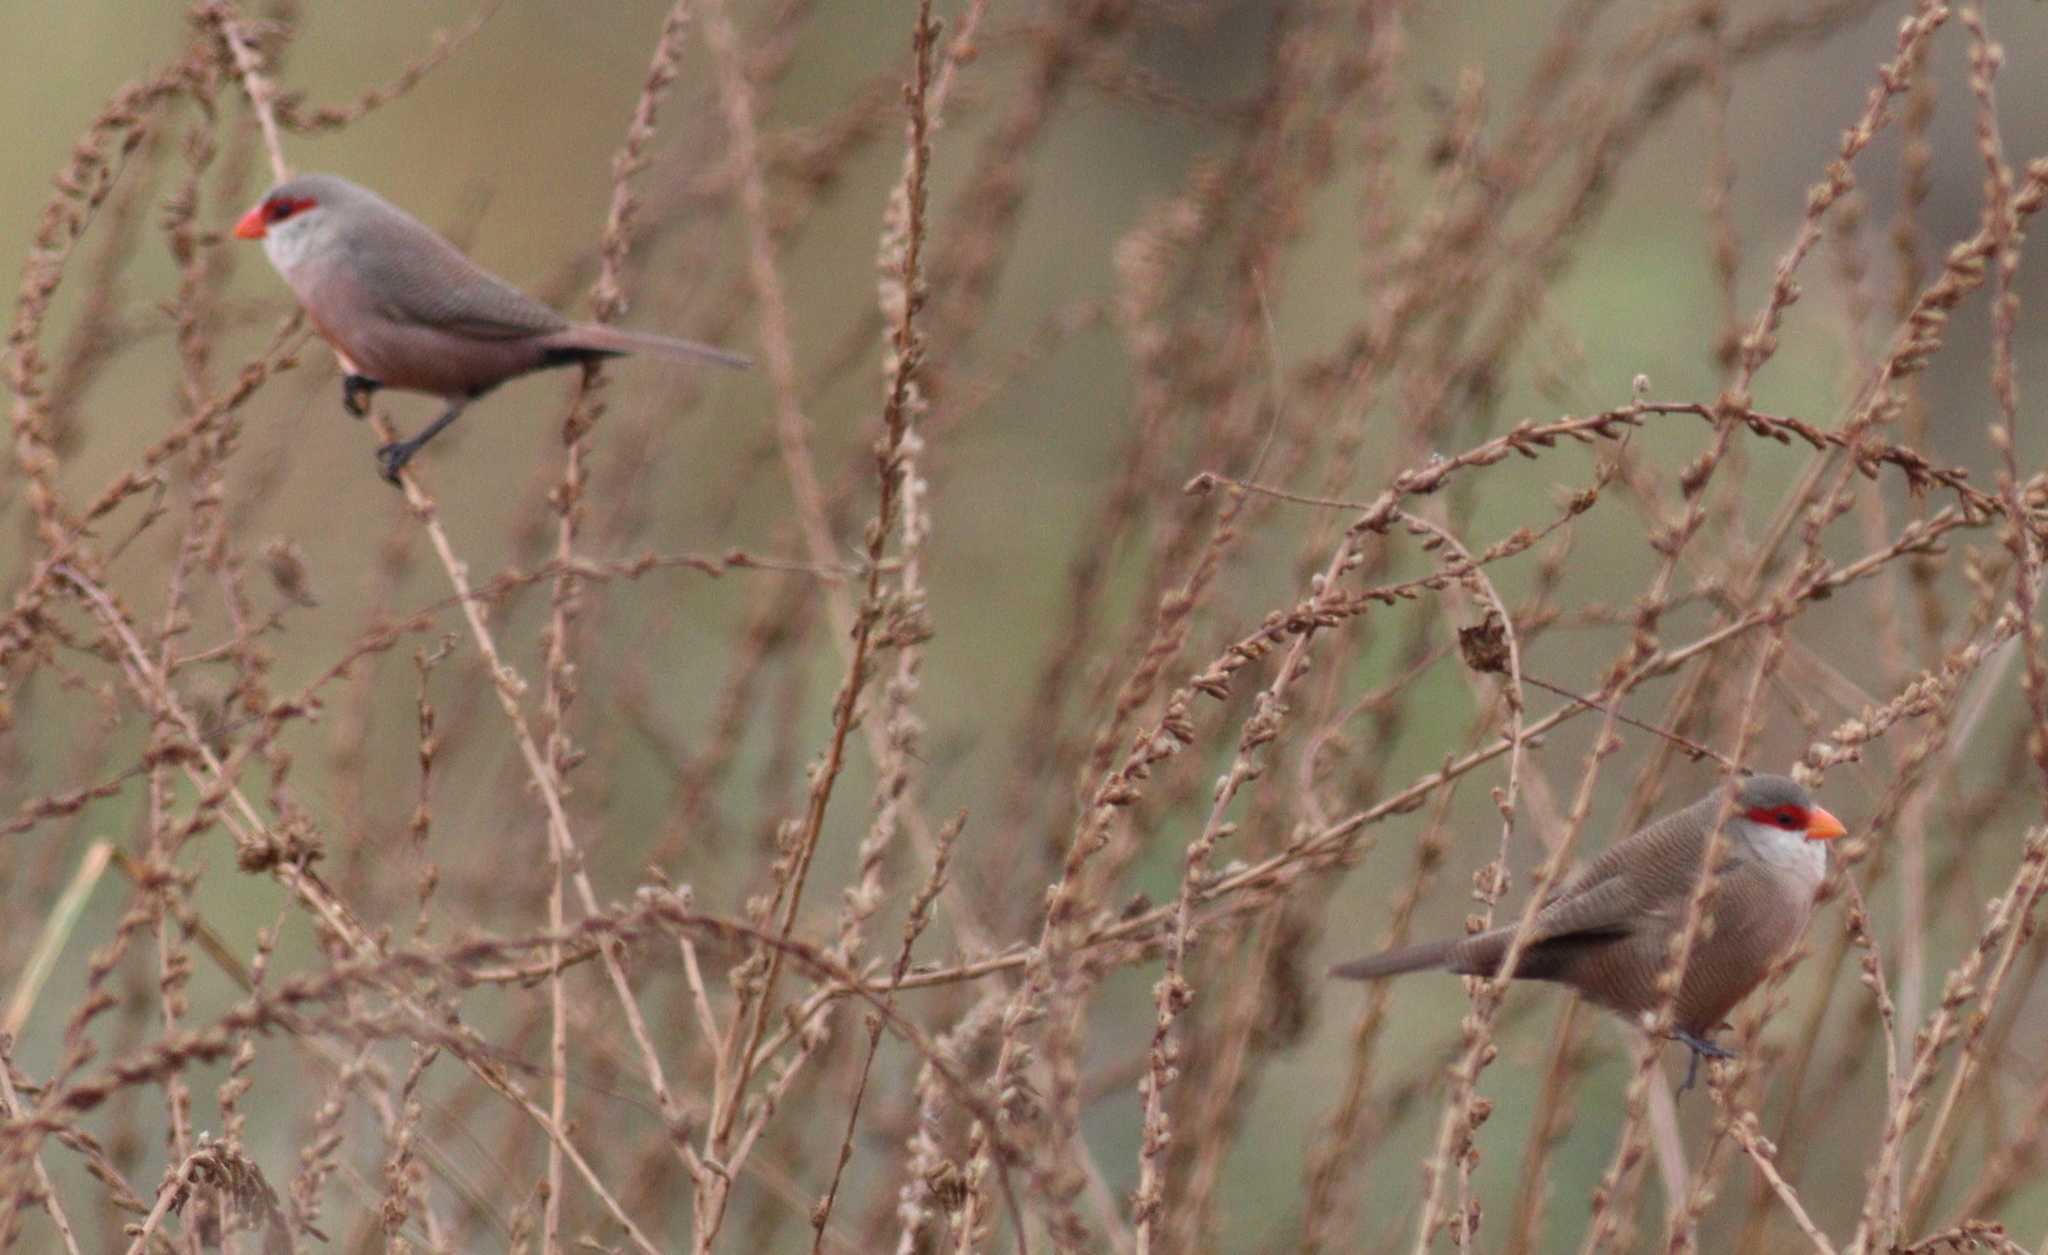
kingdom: Animalia
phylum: Chordata
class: Aves
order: Passeriformes
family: Estrildidae
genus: Estrilda
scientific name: Estrilda astrild
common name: Common waxbill
